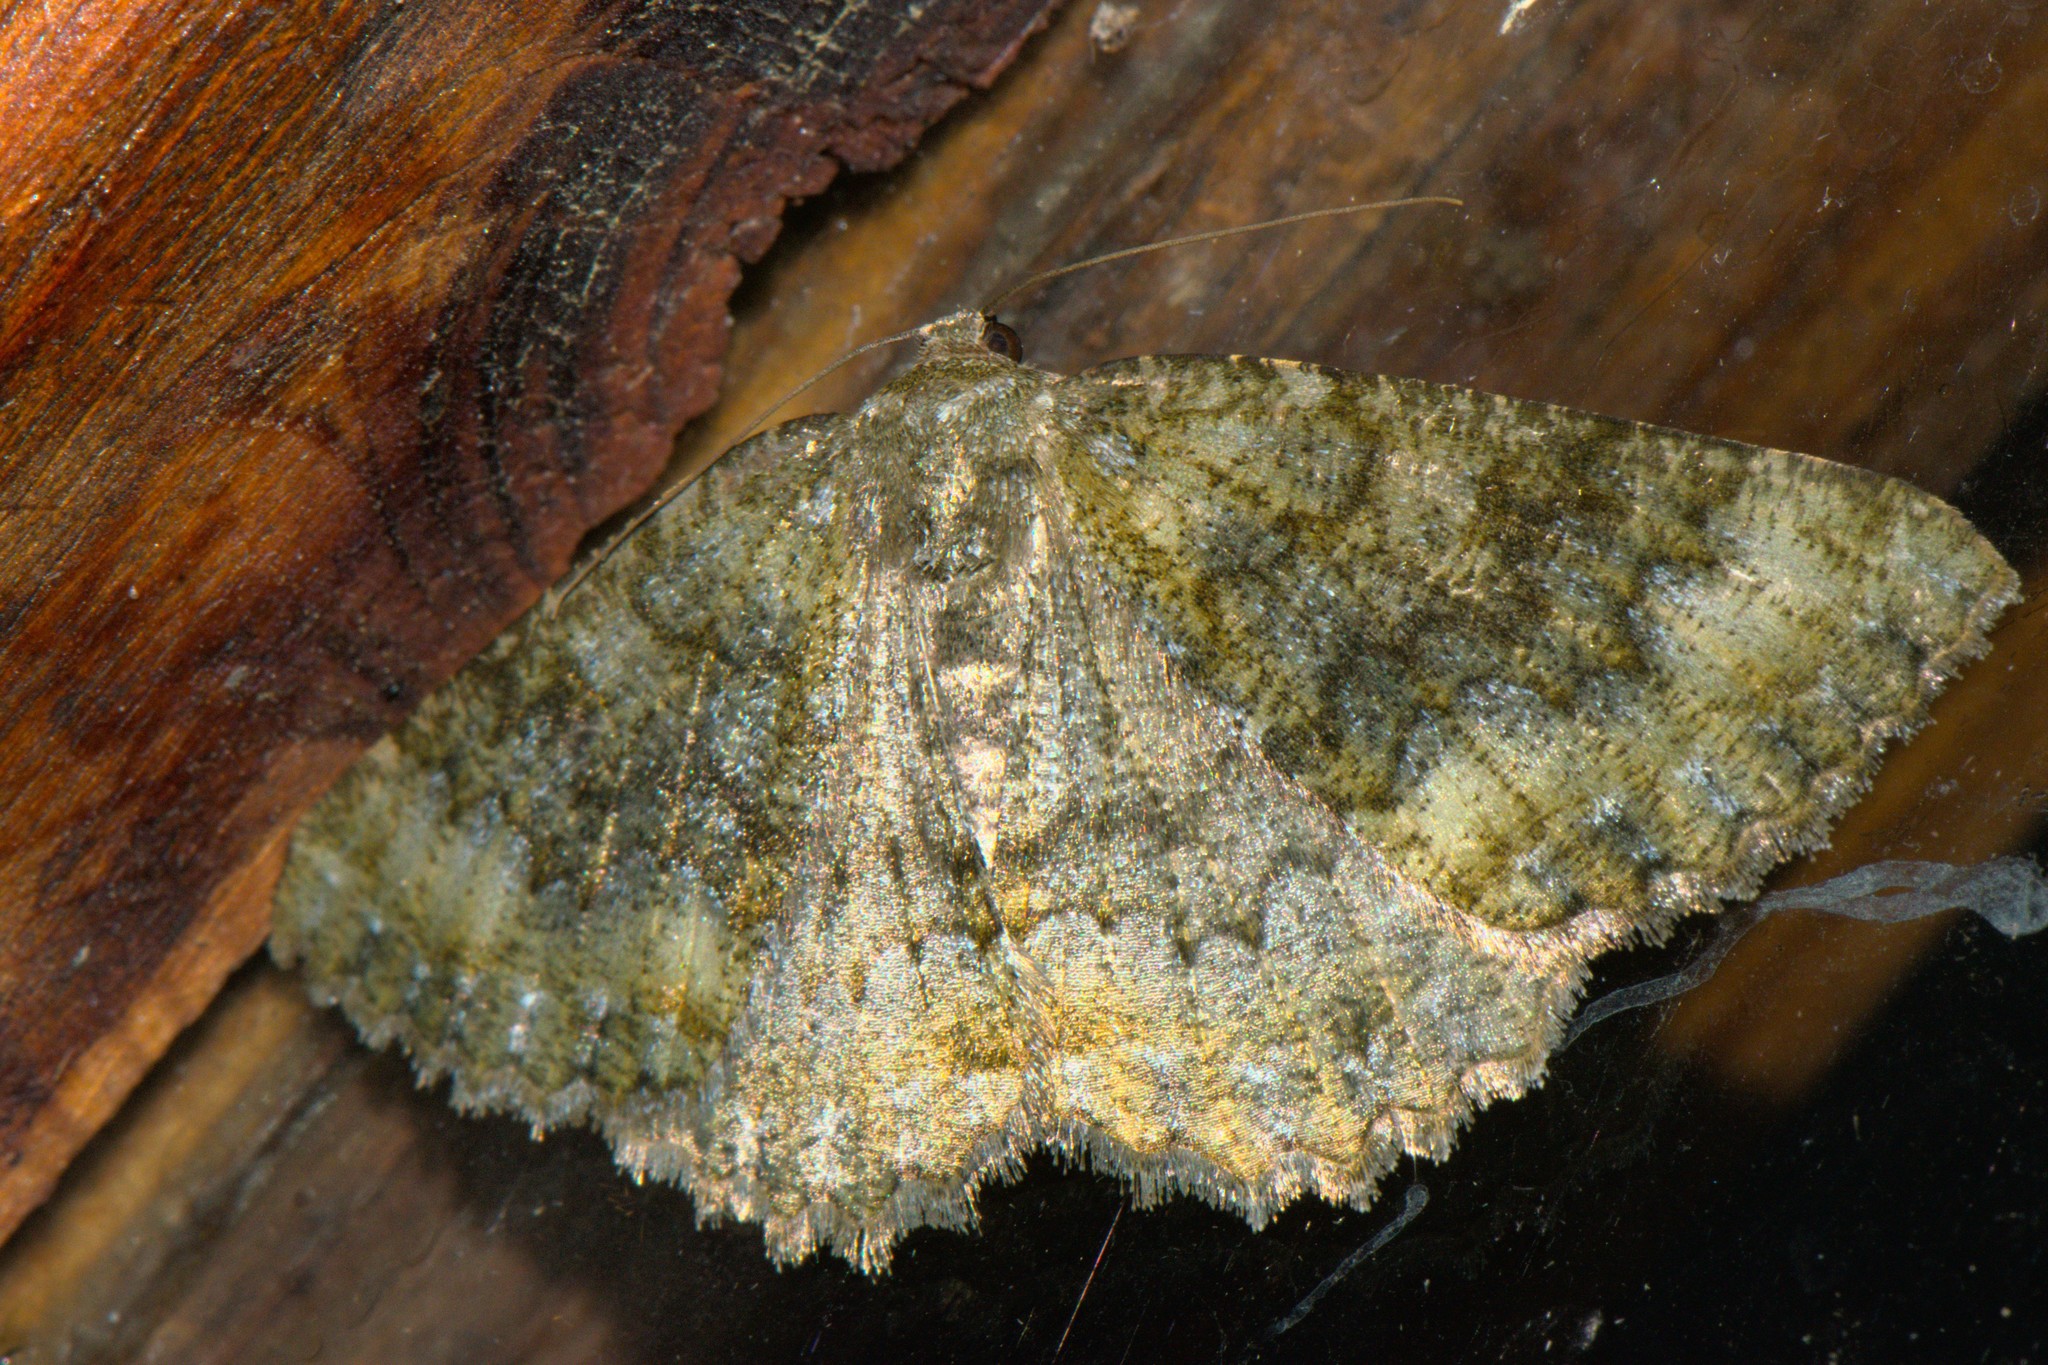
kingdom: Animalia
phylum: Arthropoda
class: Insecta
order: Lepidoptera
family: Geometridae
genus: Hirasa
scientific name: Hirasa muscosaria
